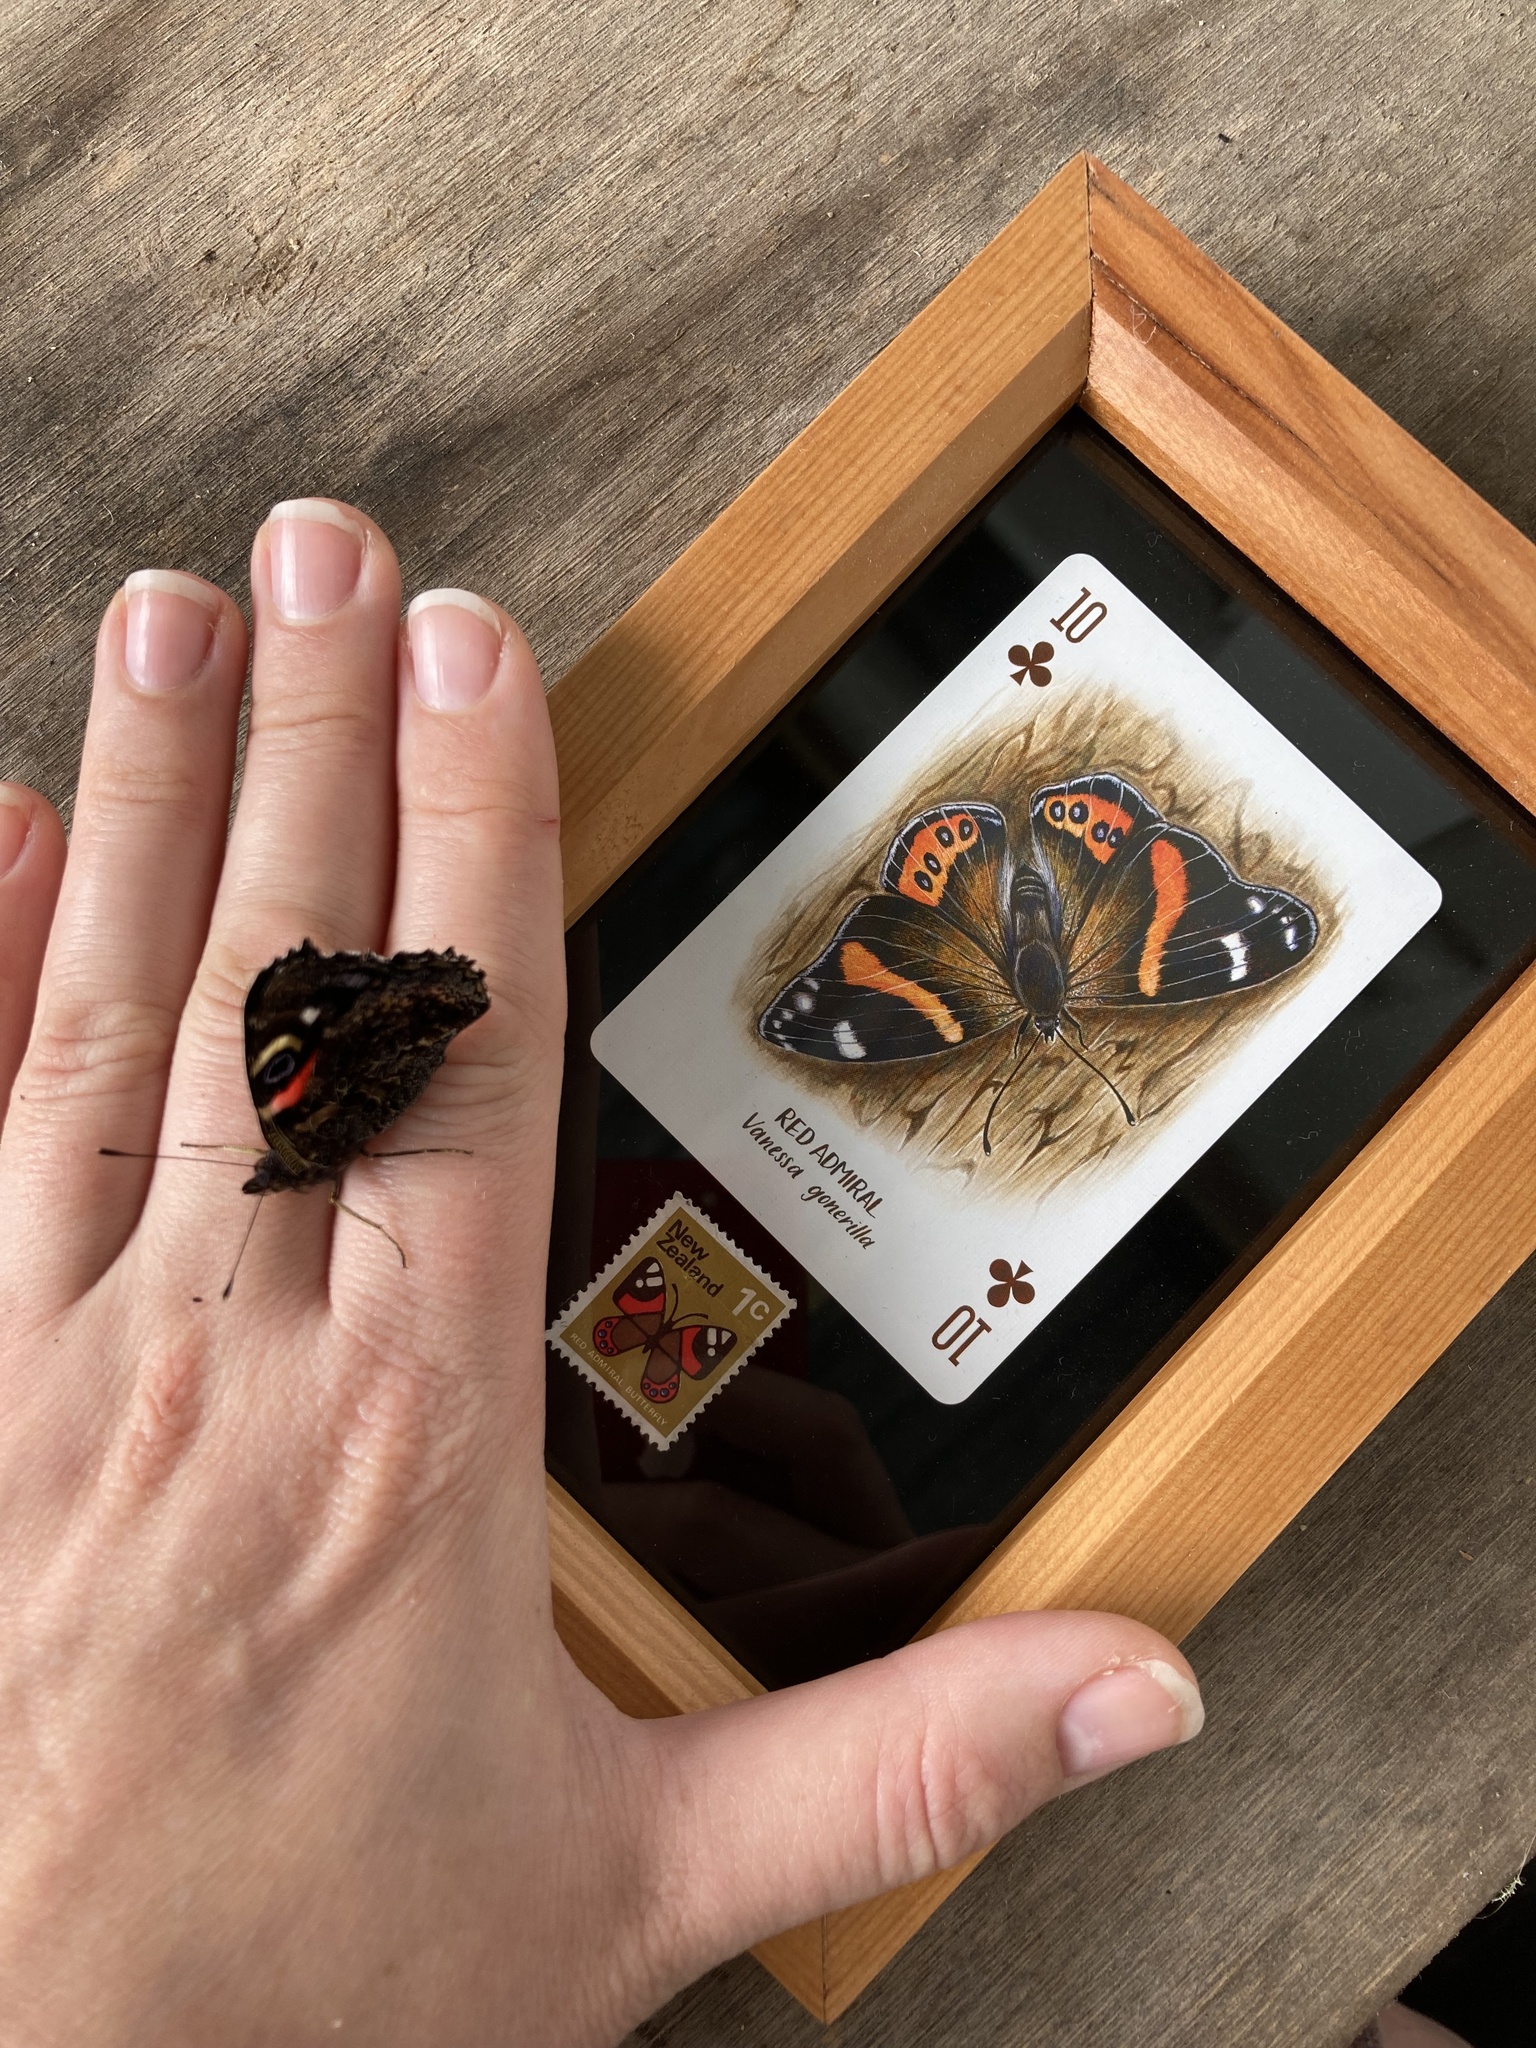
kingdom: Animalia
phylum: Arthropoda
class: Insecta
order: Lepidoptera
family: Nymphalidae
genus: Vanessa
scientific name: Vanessa gonerilla
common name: New zealand red admiral
